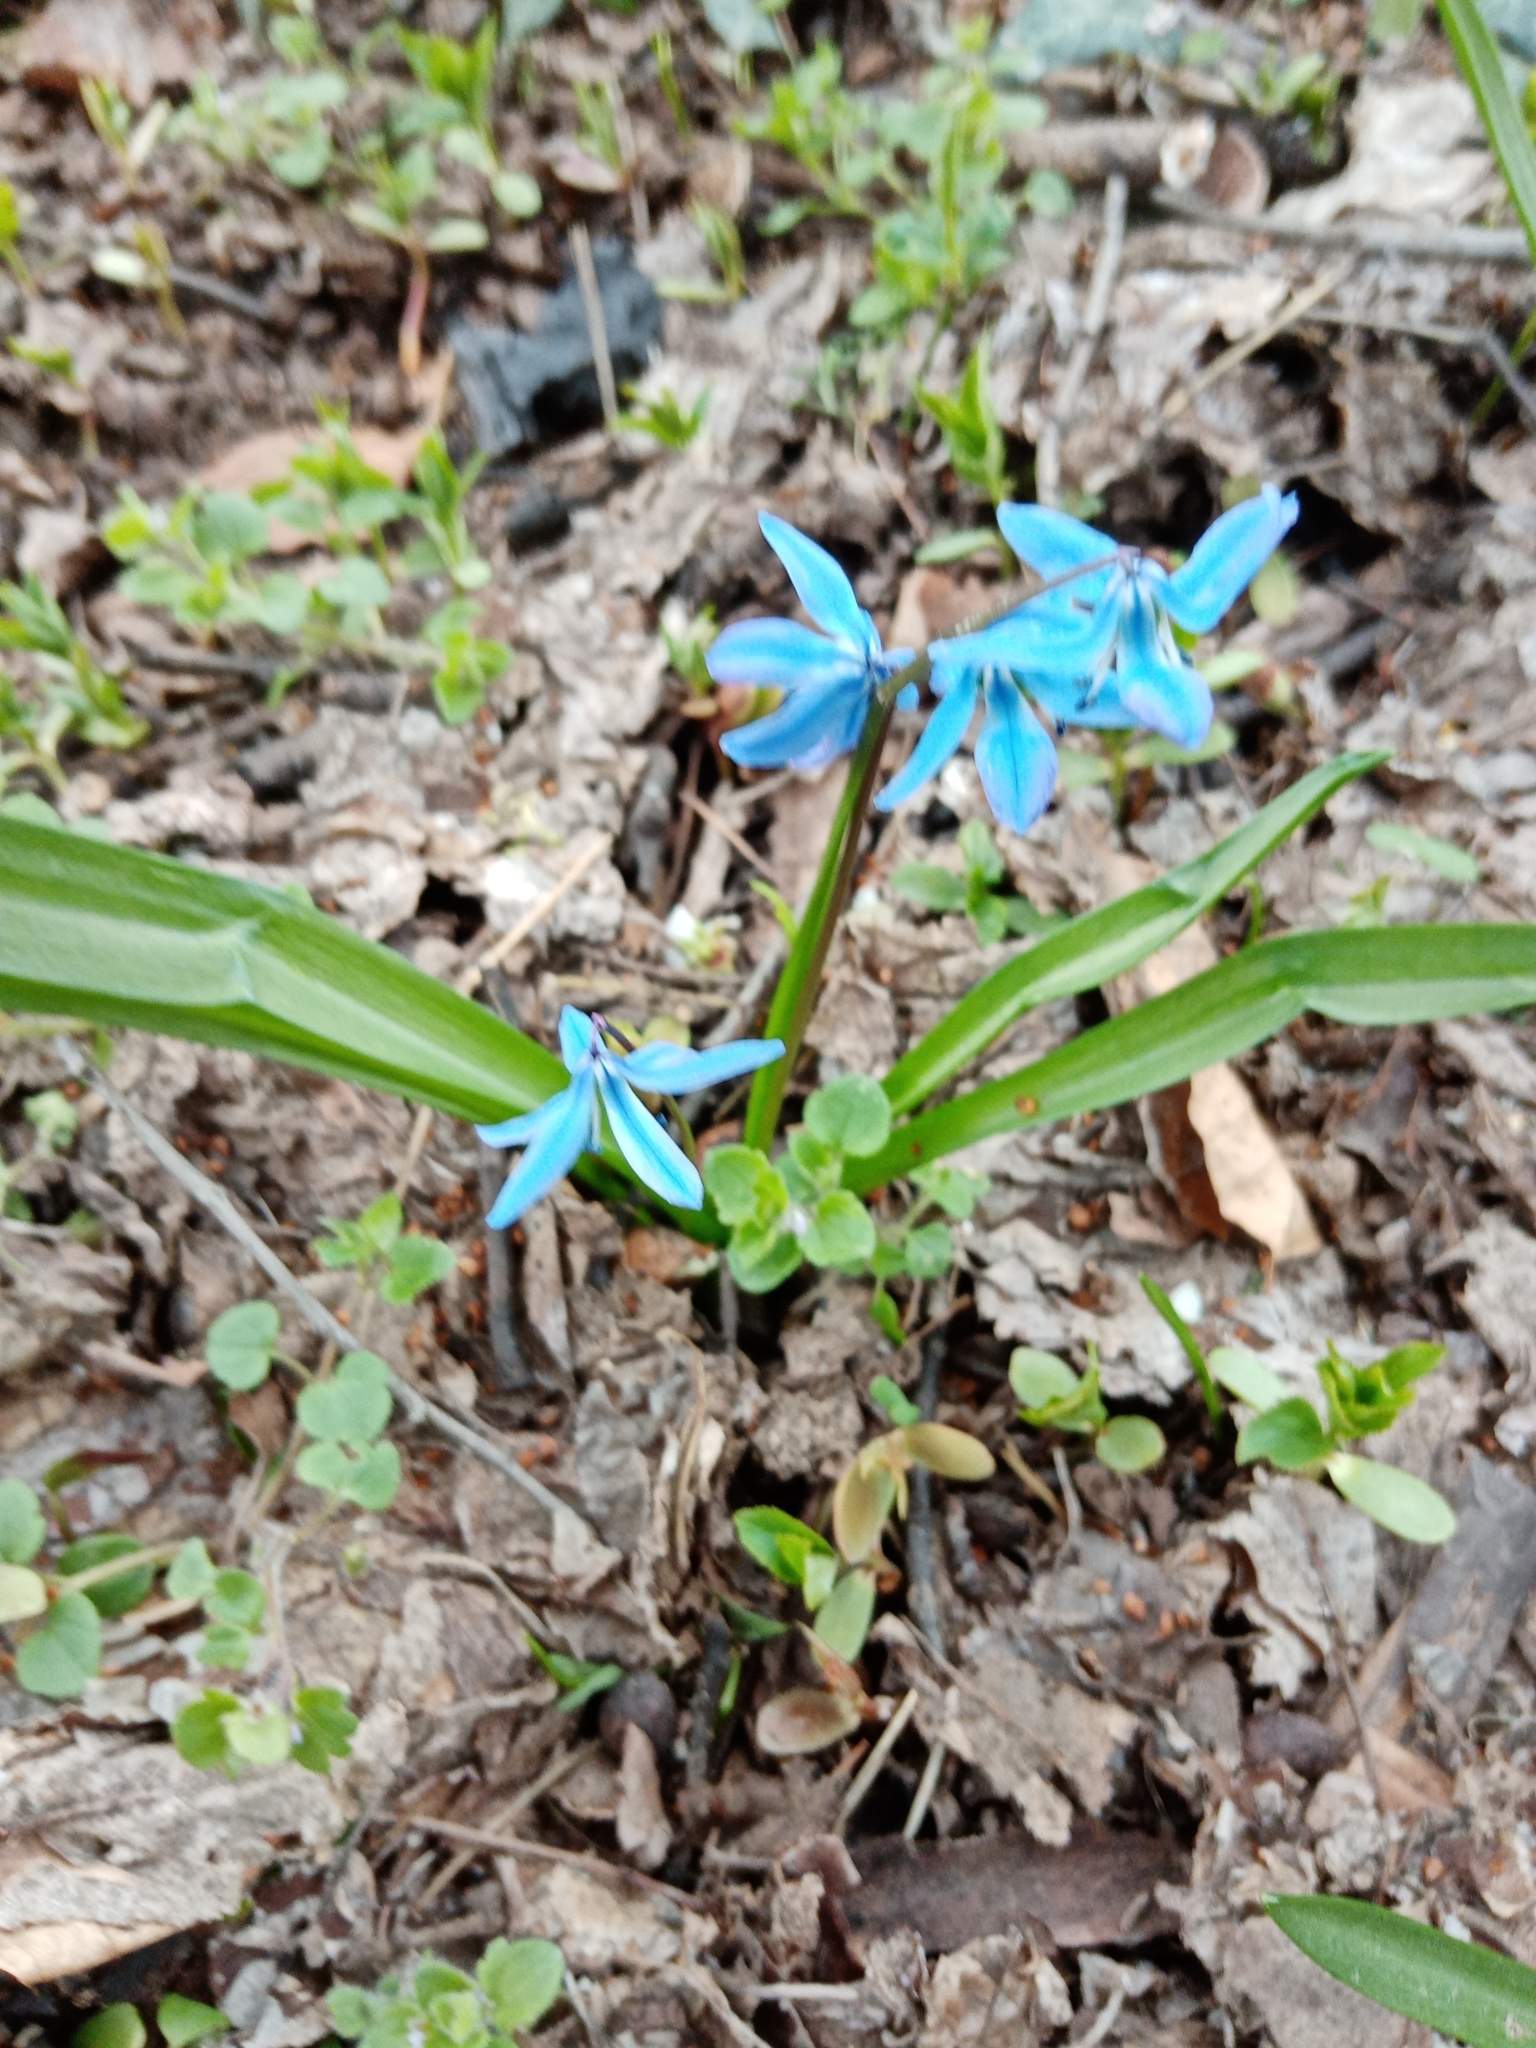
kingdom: Plantae
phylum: Tracheophyta
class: Liliopsida
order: Asparagales
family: Asparagaceae
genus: Scilla
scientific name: Scilla siberica
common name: Siberian squill
